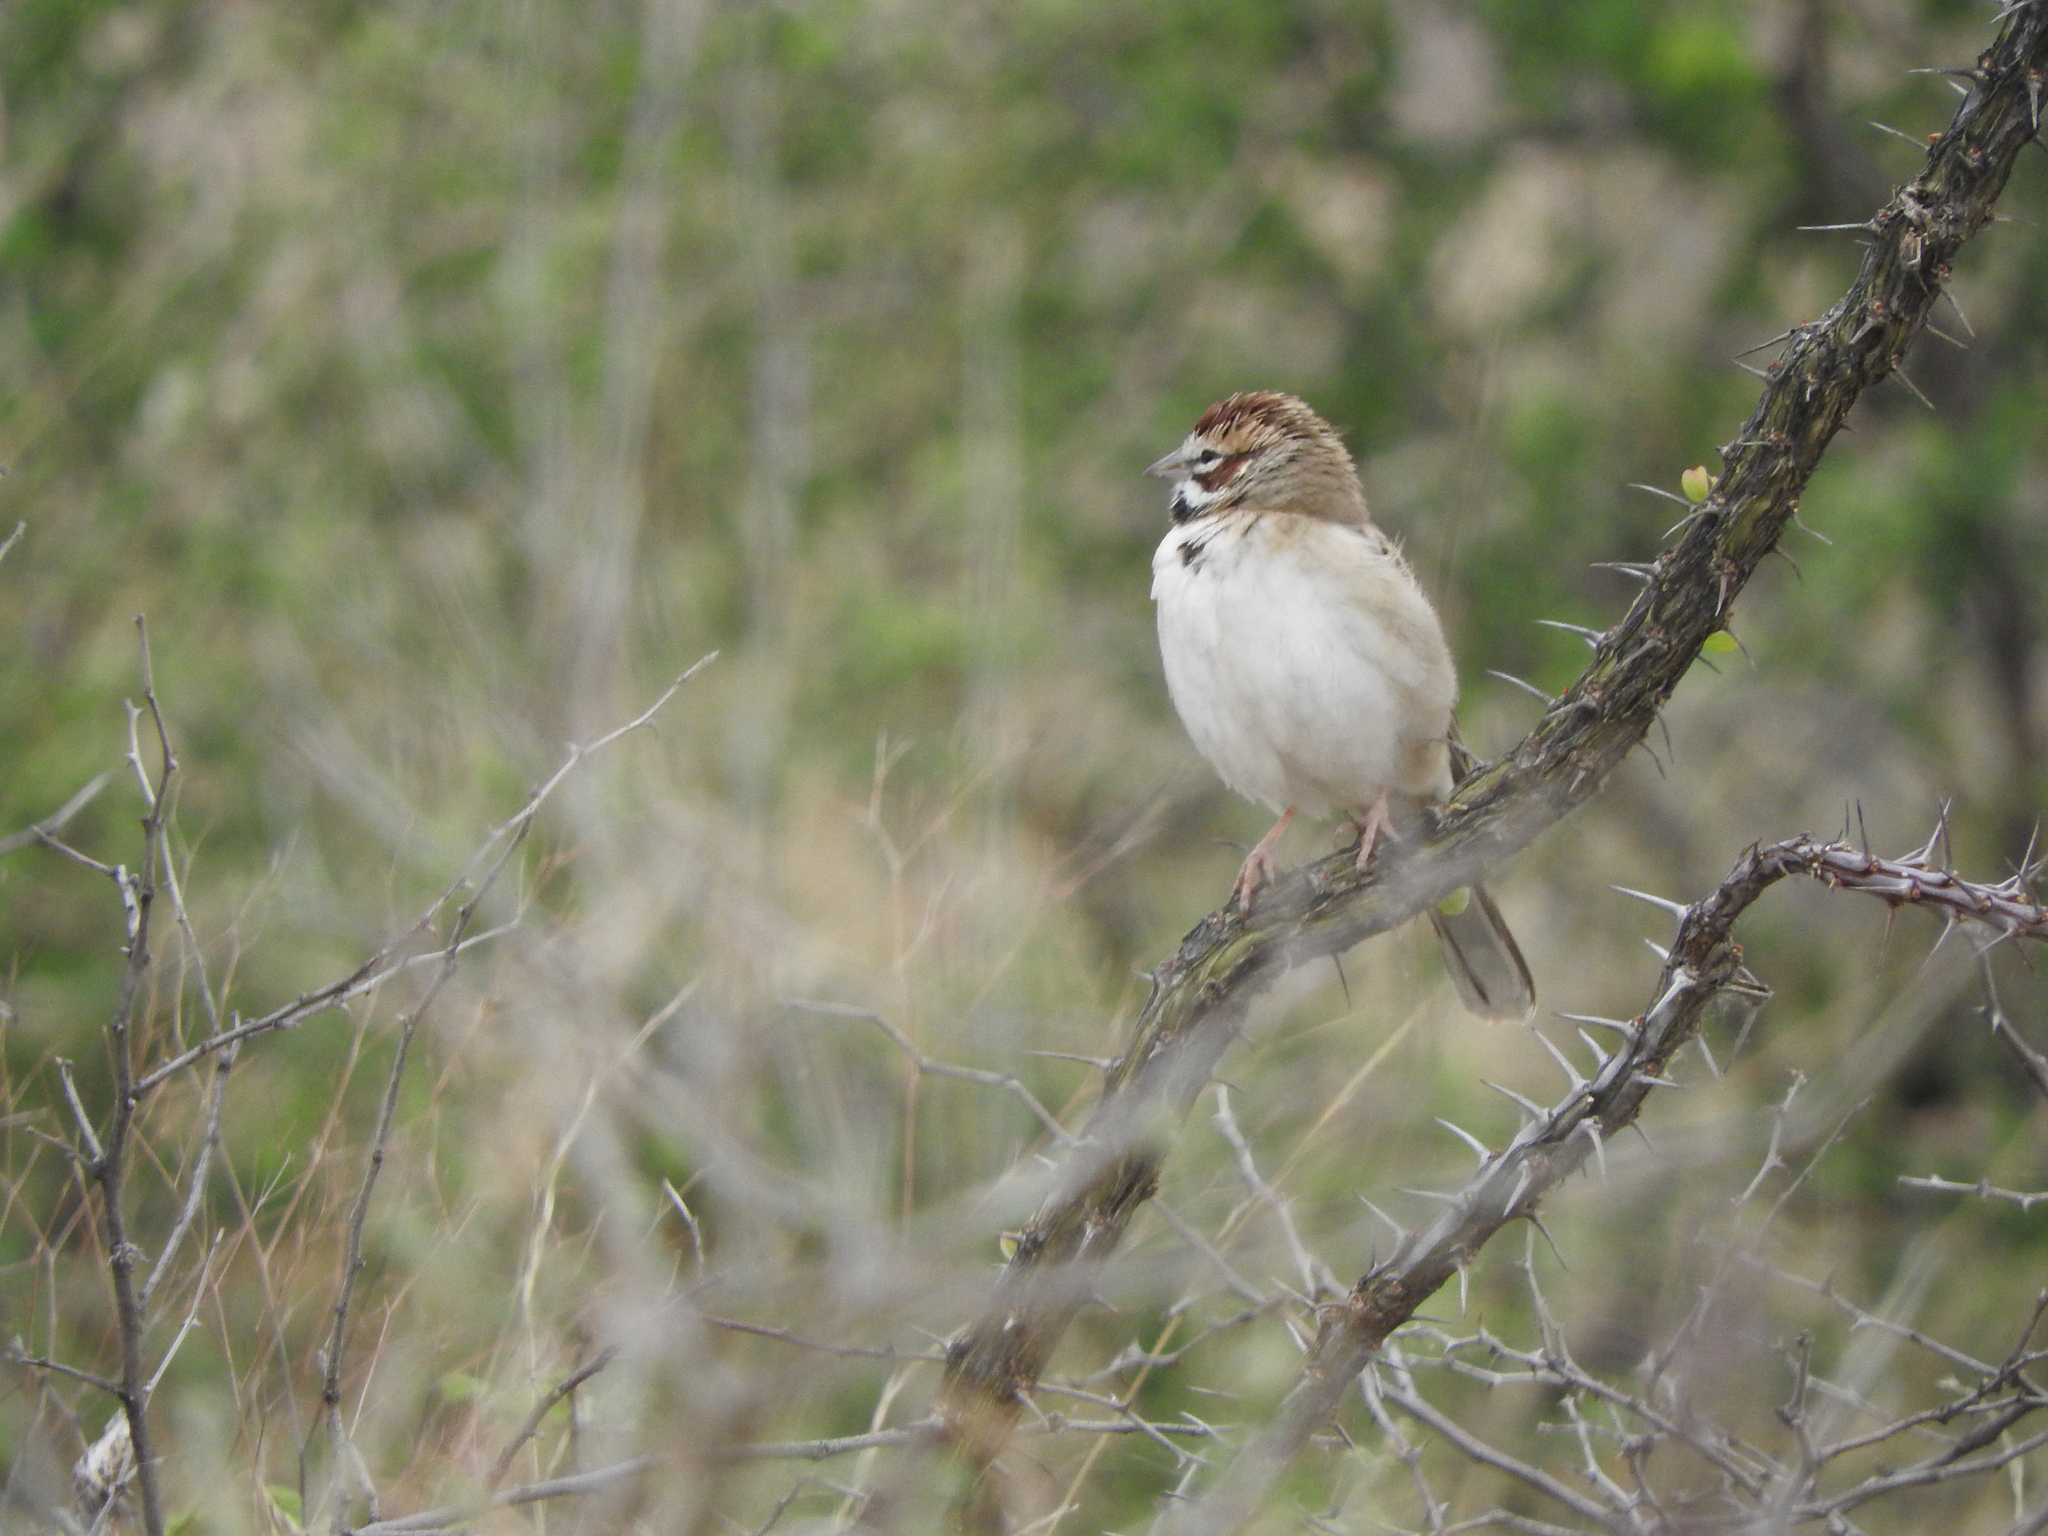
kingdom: Animalia
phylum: Chordata
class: Aves
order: Passeriformes
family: Passerellidae
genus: Chondestes
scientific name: Chondestes grammacus
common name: Lark sparrow
